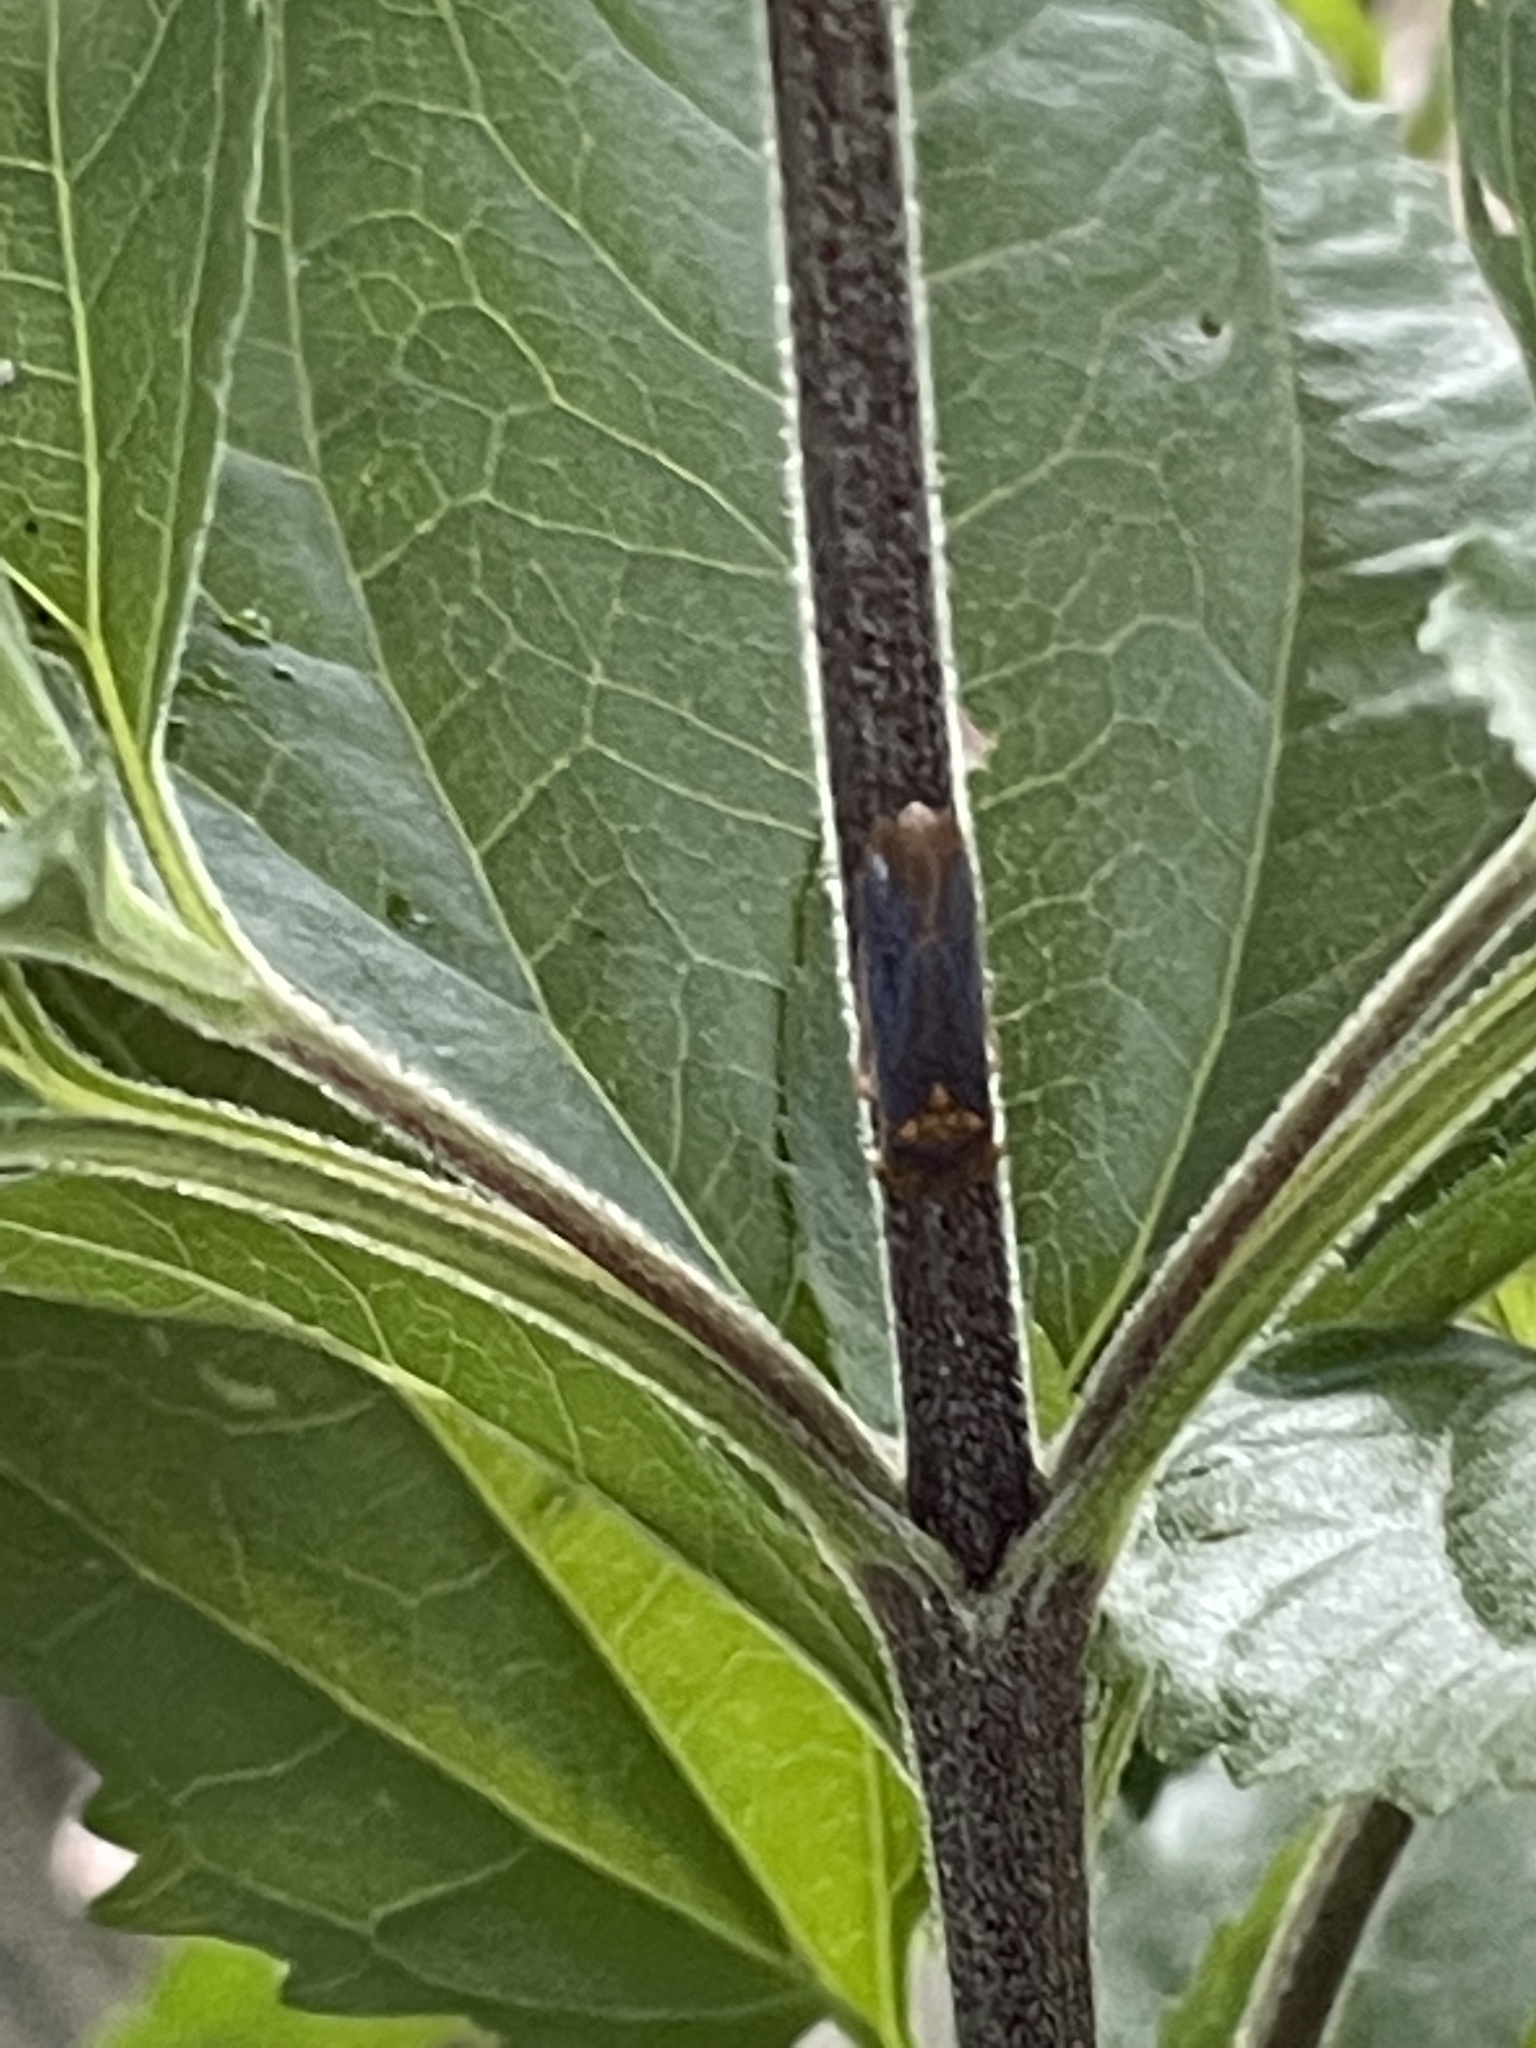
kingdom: Animalia
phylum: Arthropoda
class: Insecta
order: Hemiptera
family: Cicadellidae
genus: Oncometopia
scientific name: Oncometopia orbona
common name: Broad-headed sharpshooter
